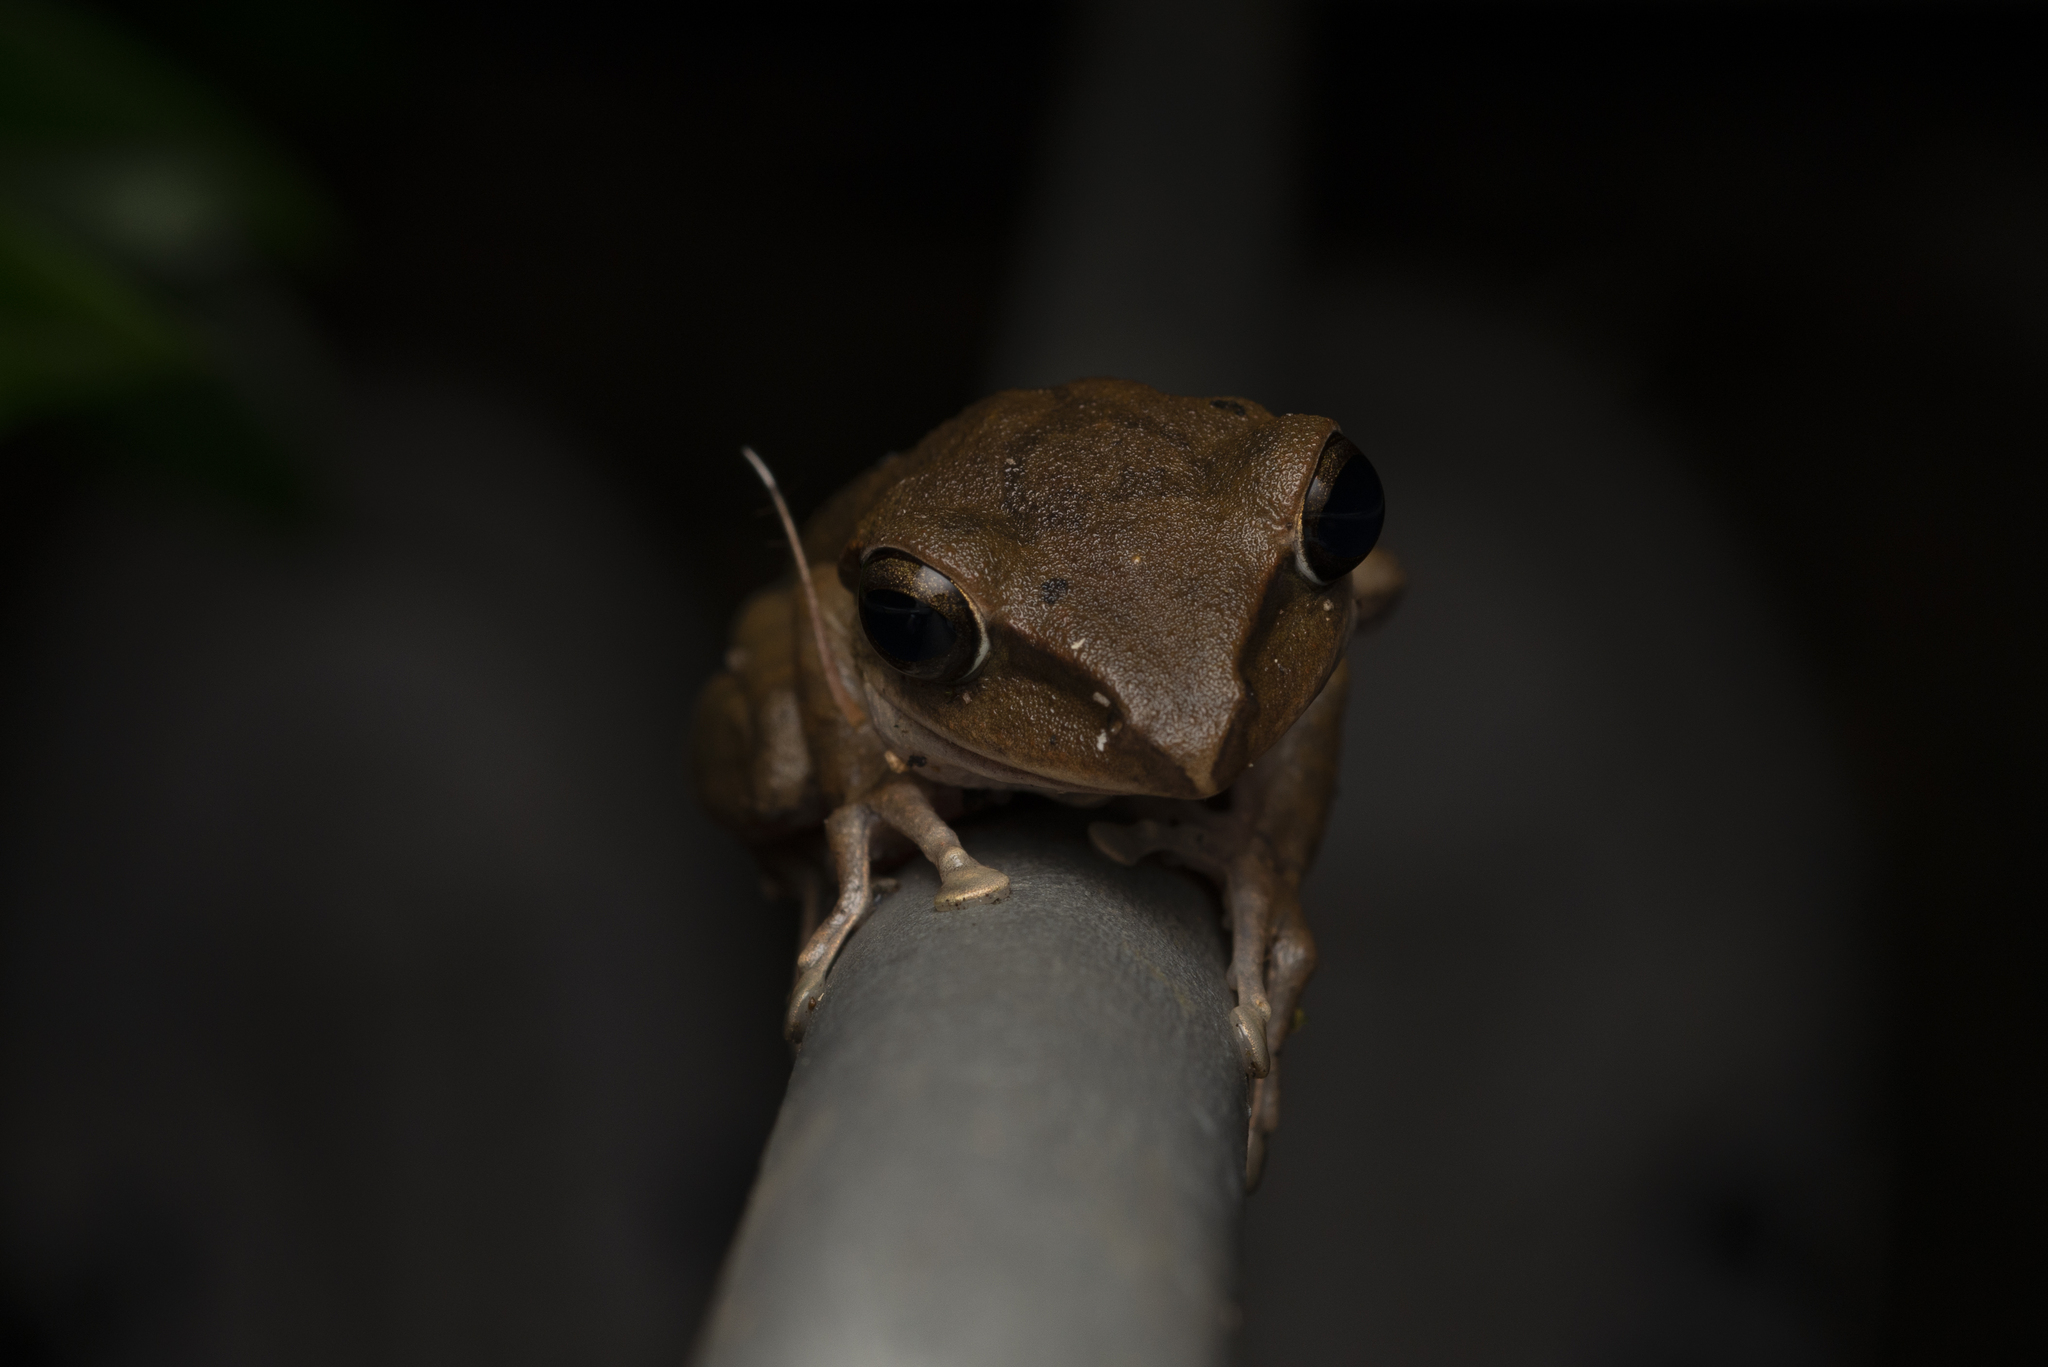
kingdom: Animalia
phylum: Chordata
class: Amphibia
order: Anura
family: Rhacophoridae
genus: Polypedates
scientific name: Polypedates megacephalus
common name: Hong kong whipping frog
